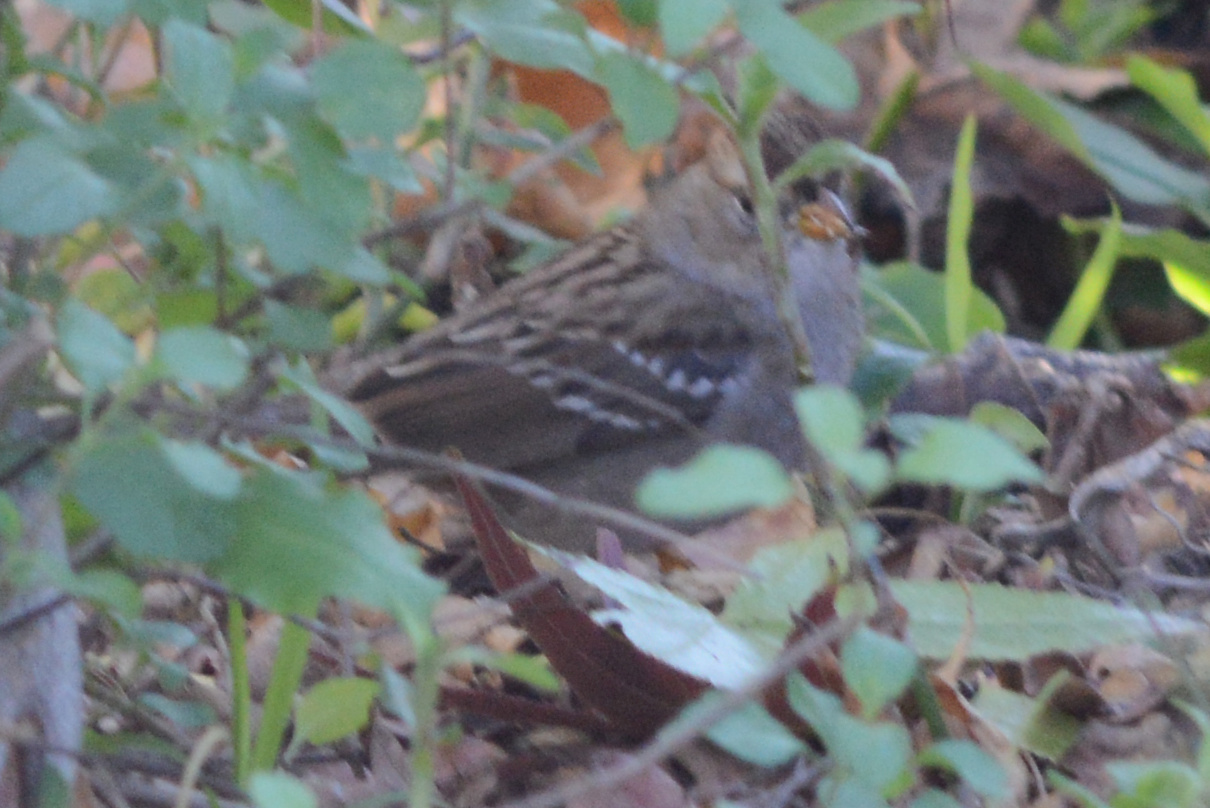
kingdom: Animalia
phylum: Chordata
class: Aves
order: Passeriformes
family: Passerellidae
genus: Zonotrichia
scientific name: Zonotrichia leucophrys
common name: White-crowned sparrow
